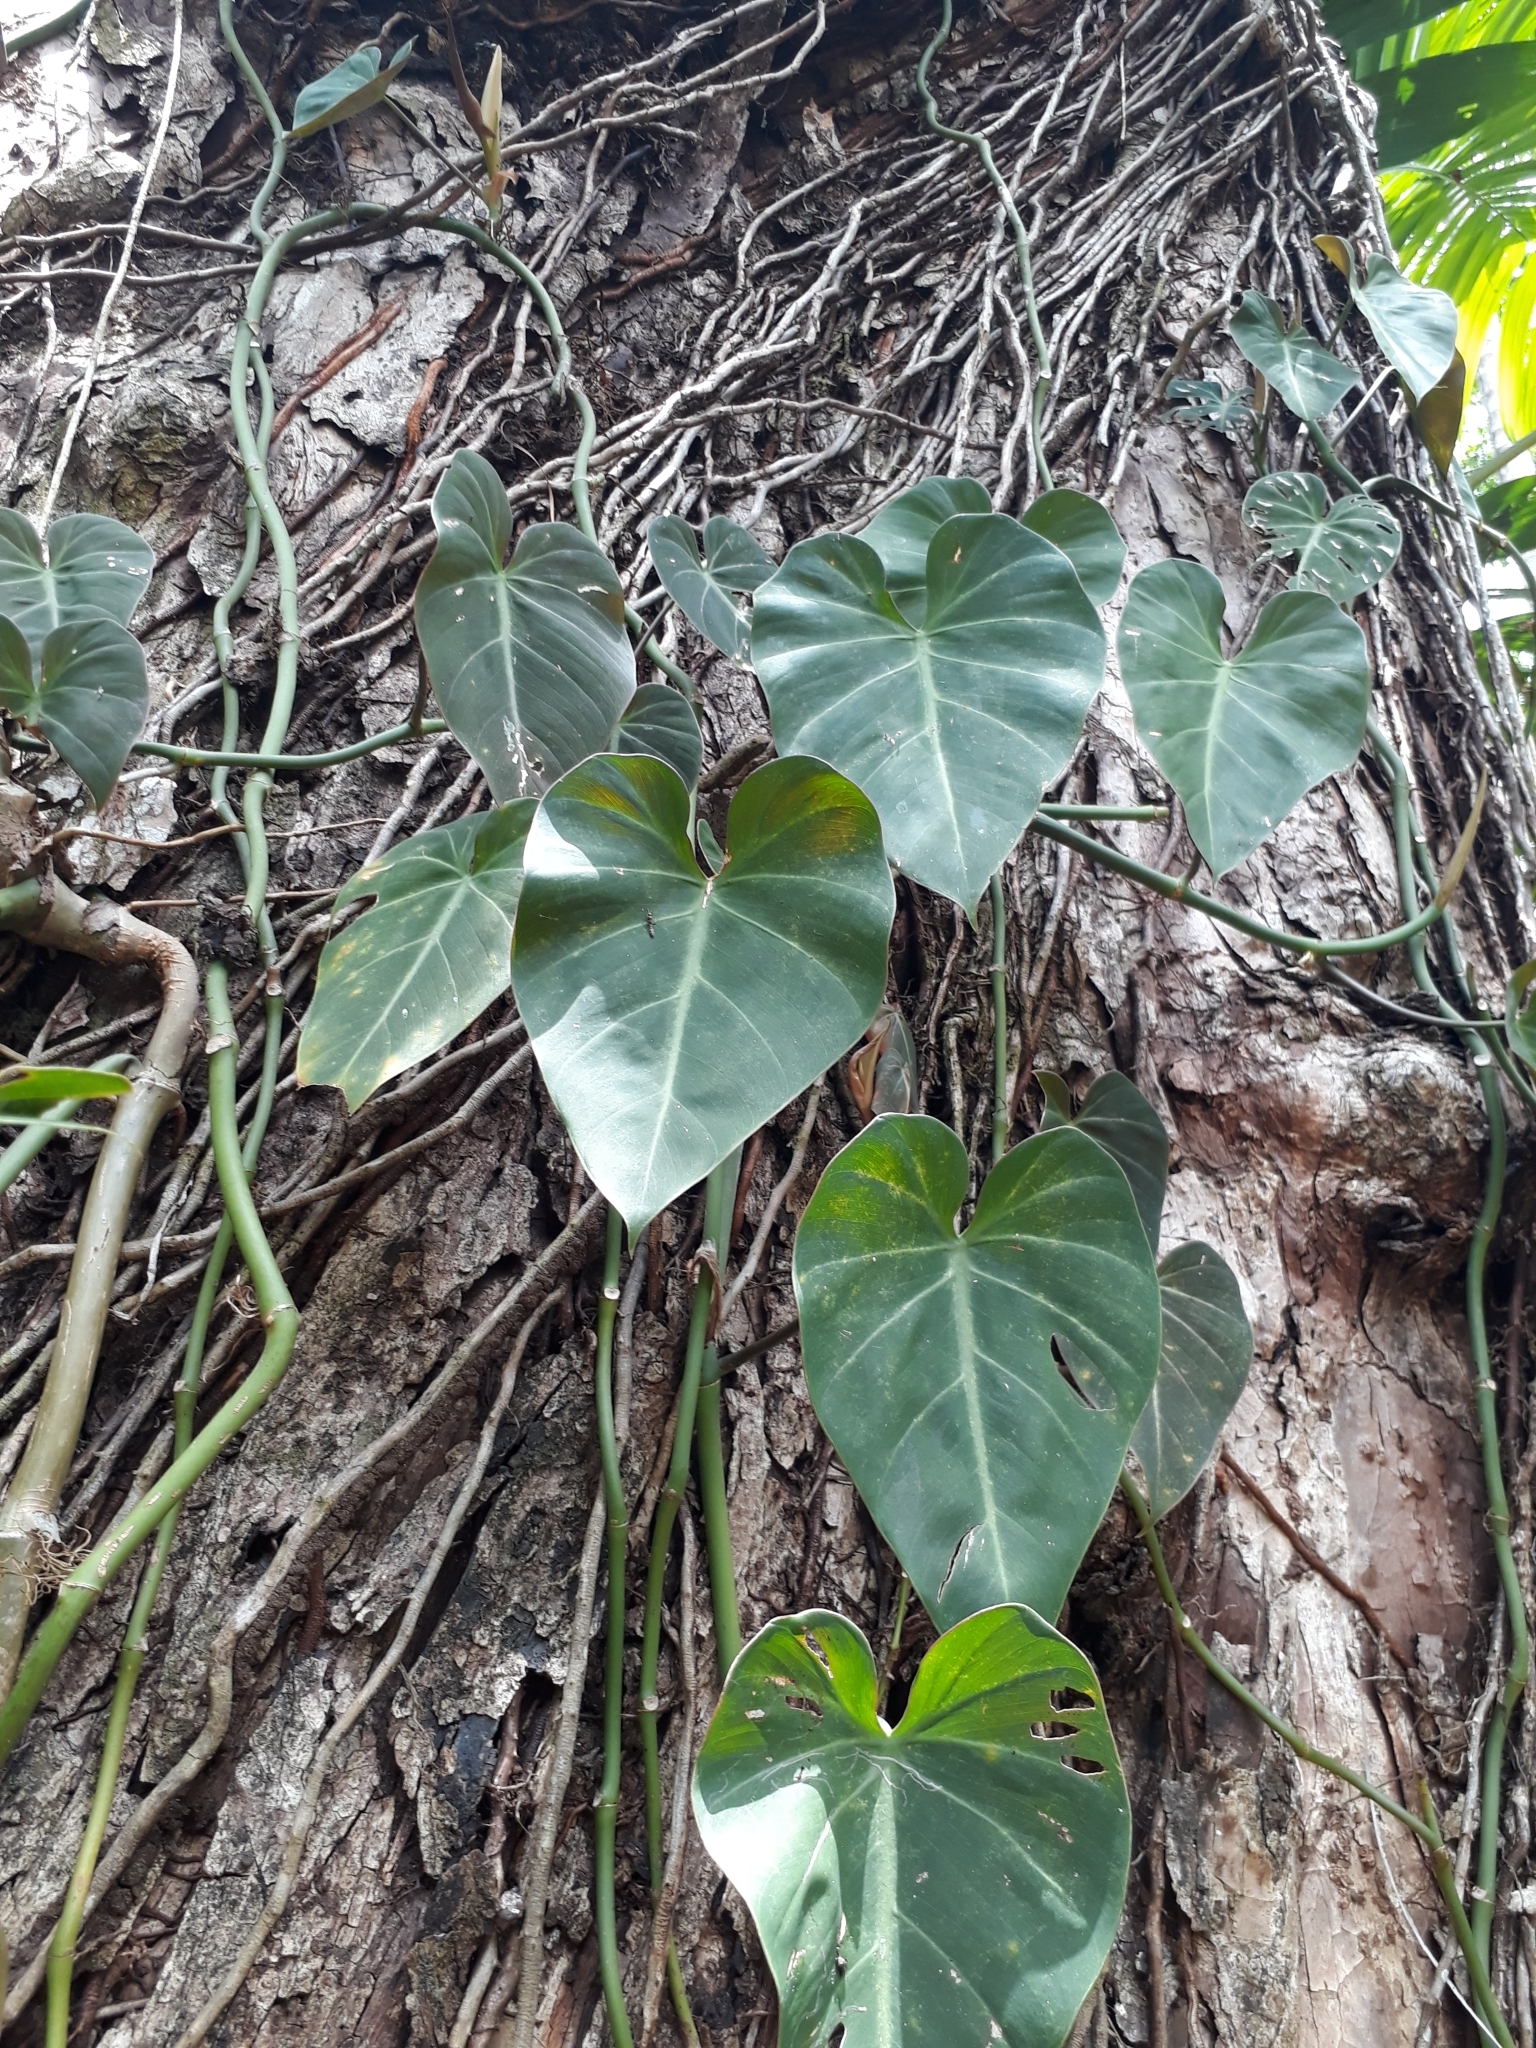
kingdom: Plantae
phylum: Tracheophyta
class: Liliopsida
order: Alismatales
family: Araceae
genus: Philodendron
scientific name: Philodendron hederaceum
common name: Vilevine
